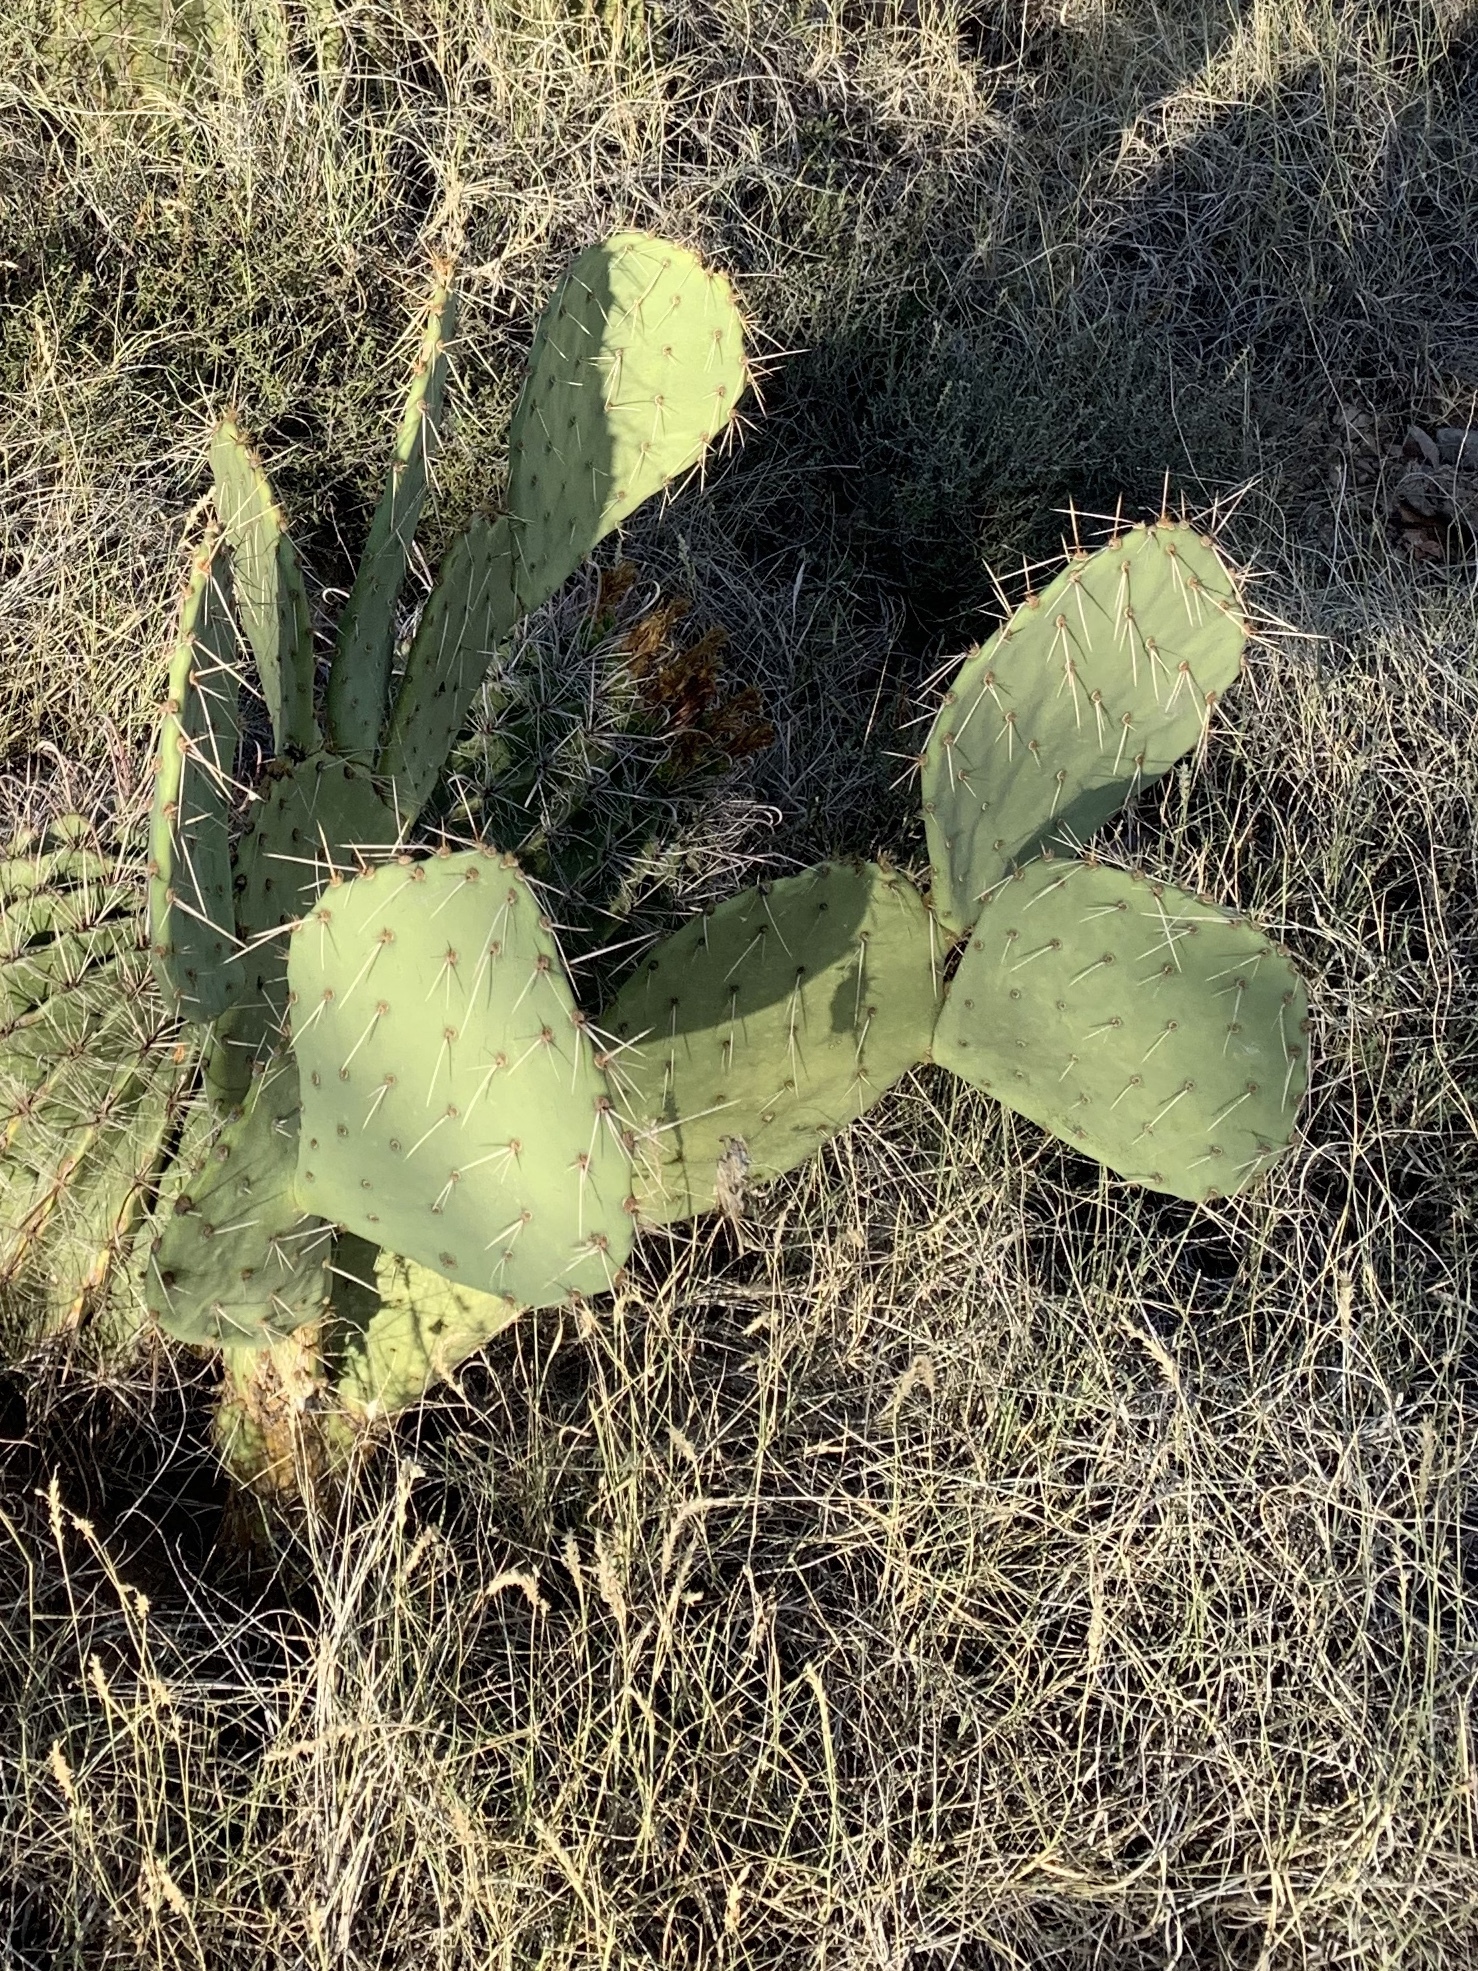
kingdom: Plantae
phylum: Tracheophyta
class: Magnoliopsida
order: Caryophyllales
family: Cactaceae
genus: Opuntia
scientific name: Opuntia engelmannii
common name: Cactus-apple
